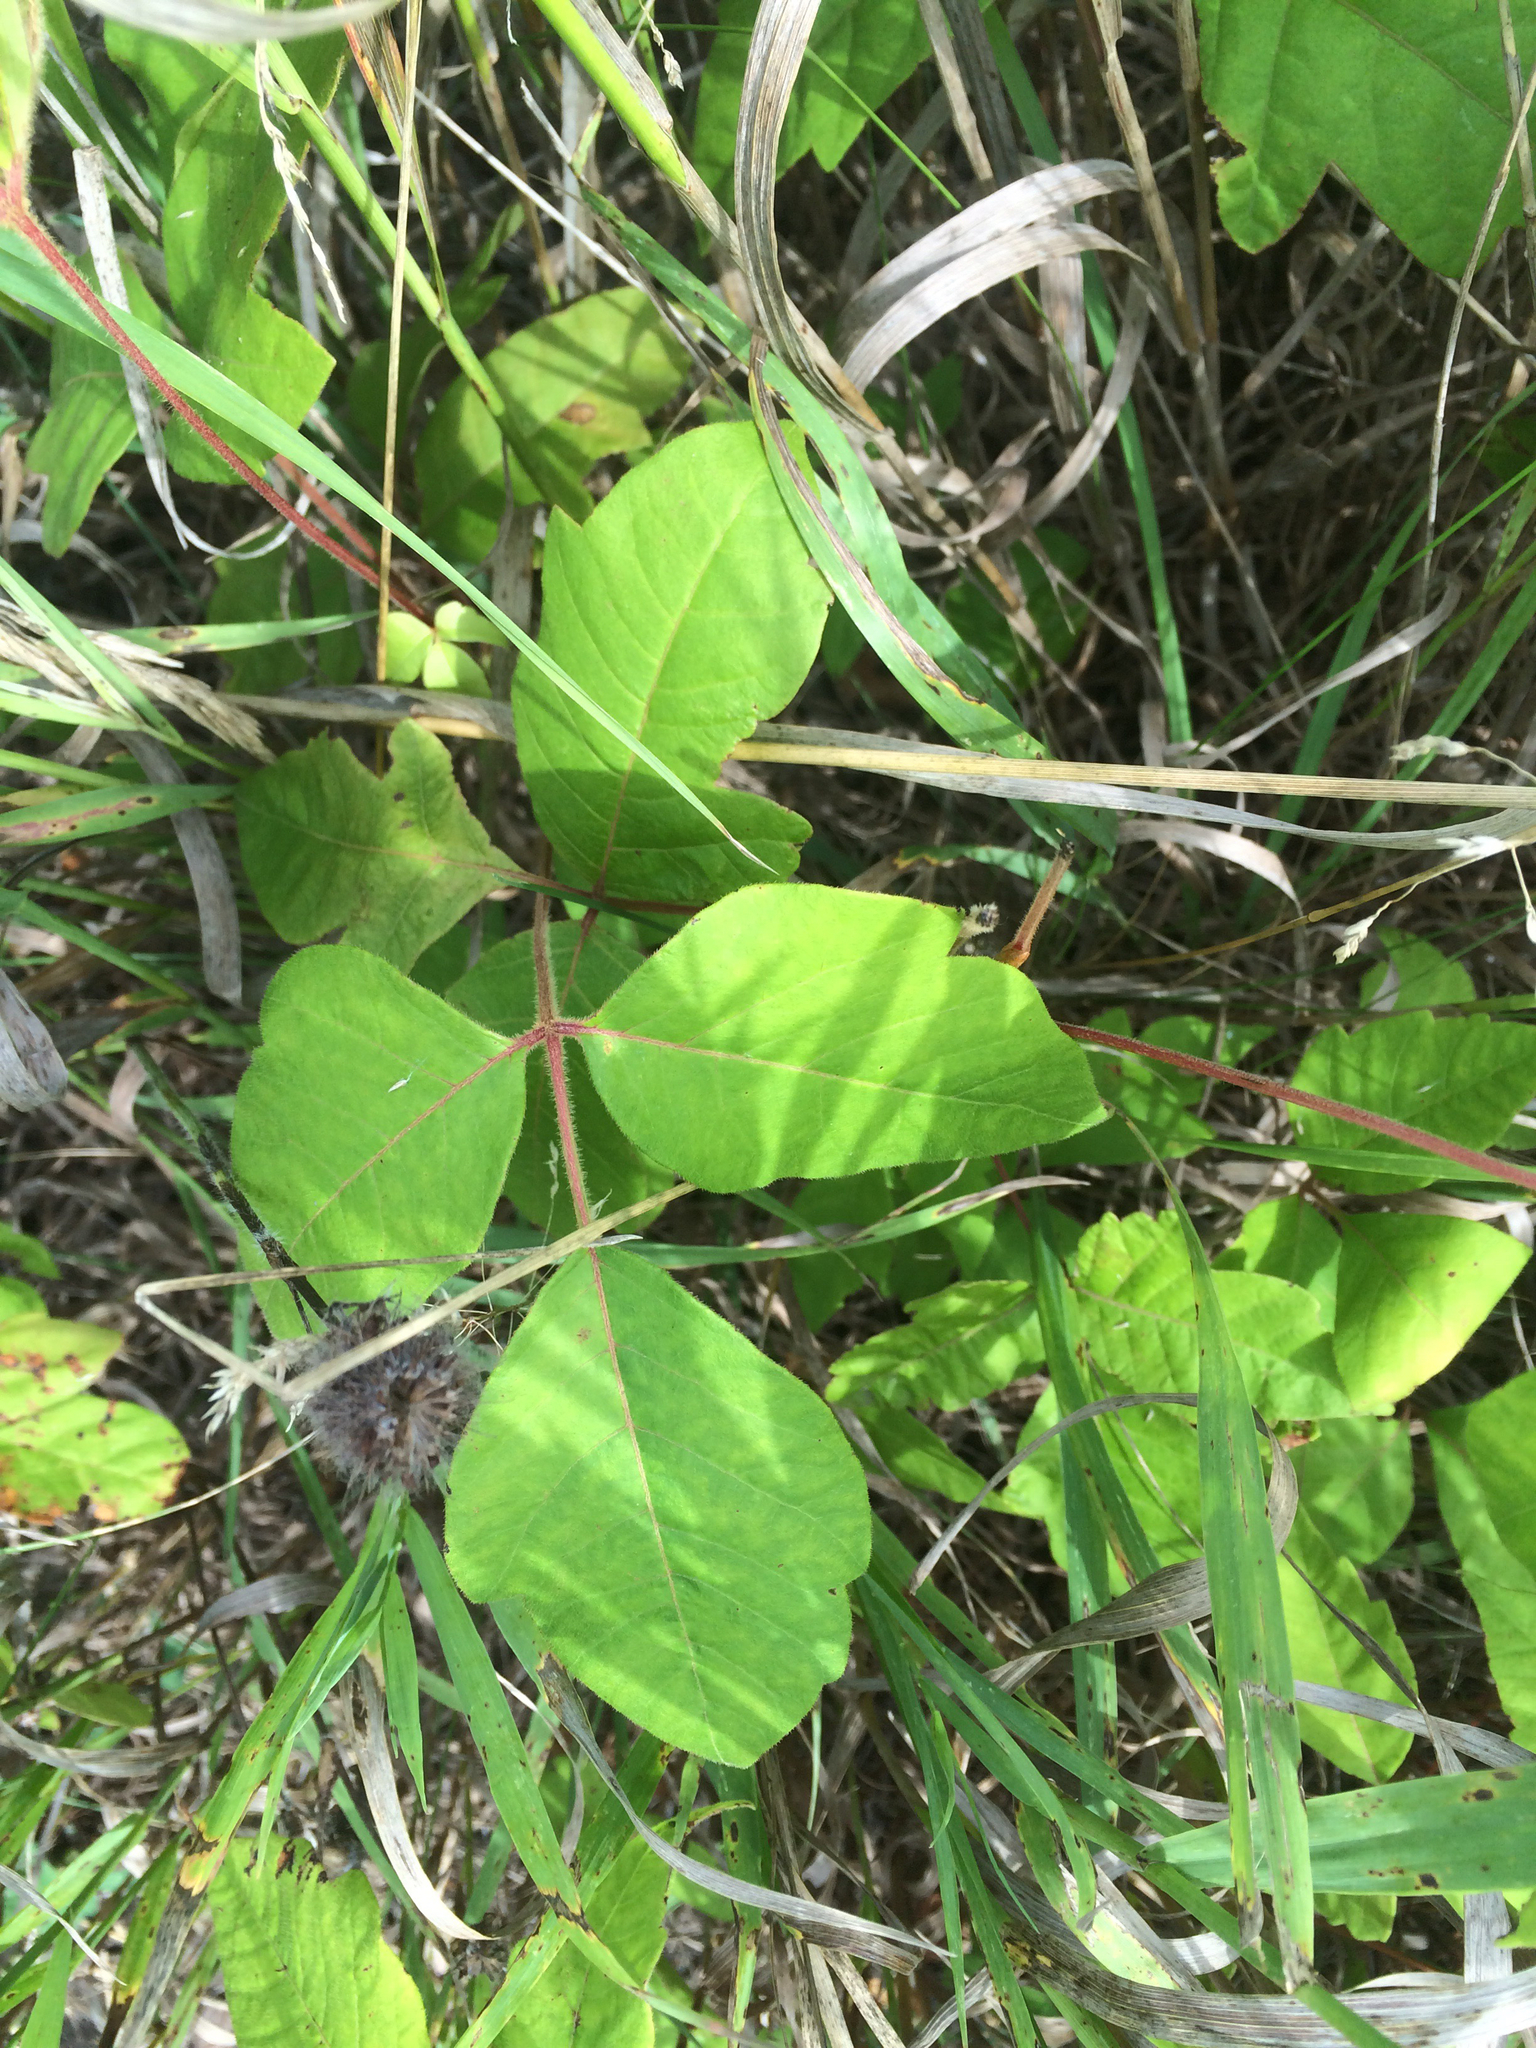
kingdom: Plantae
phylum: Tracheophyta
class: Magnoliopsida
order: Sapindales
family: Anacardiaceae
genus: Toxicodendron
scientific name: Toxicodendron radicans
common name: Poison ivy
